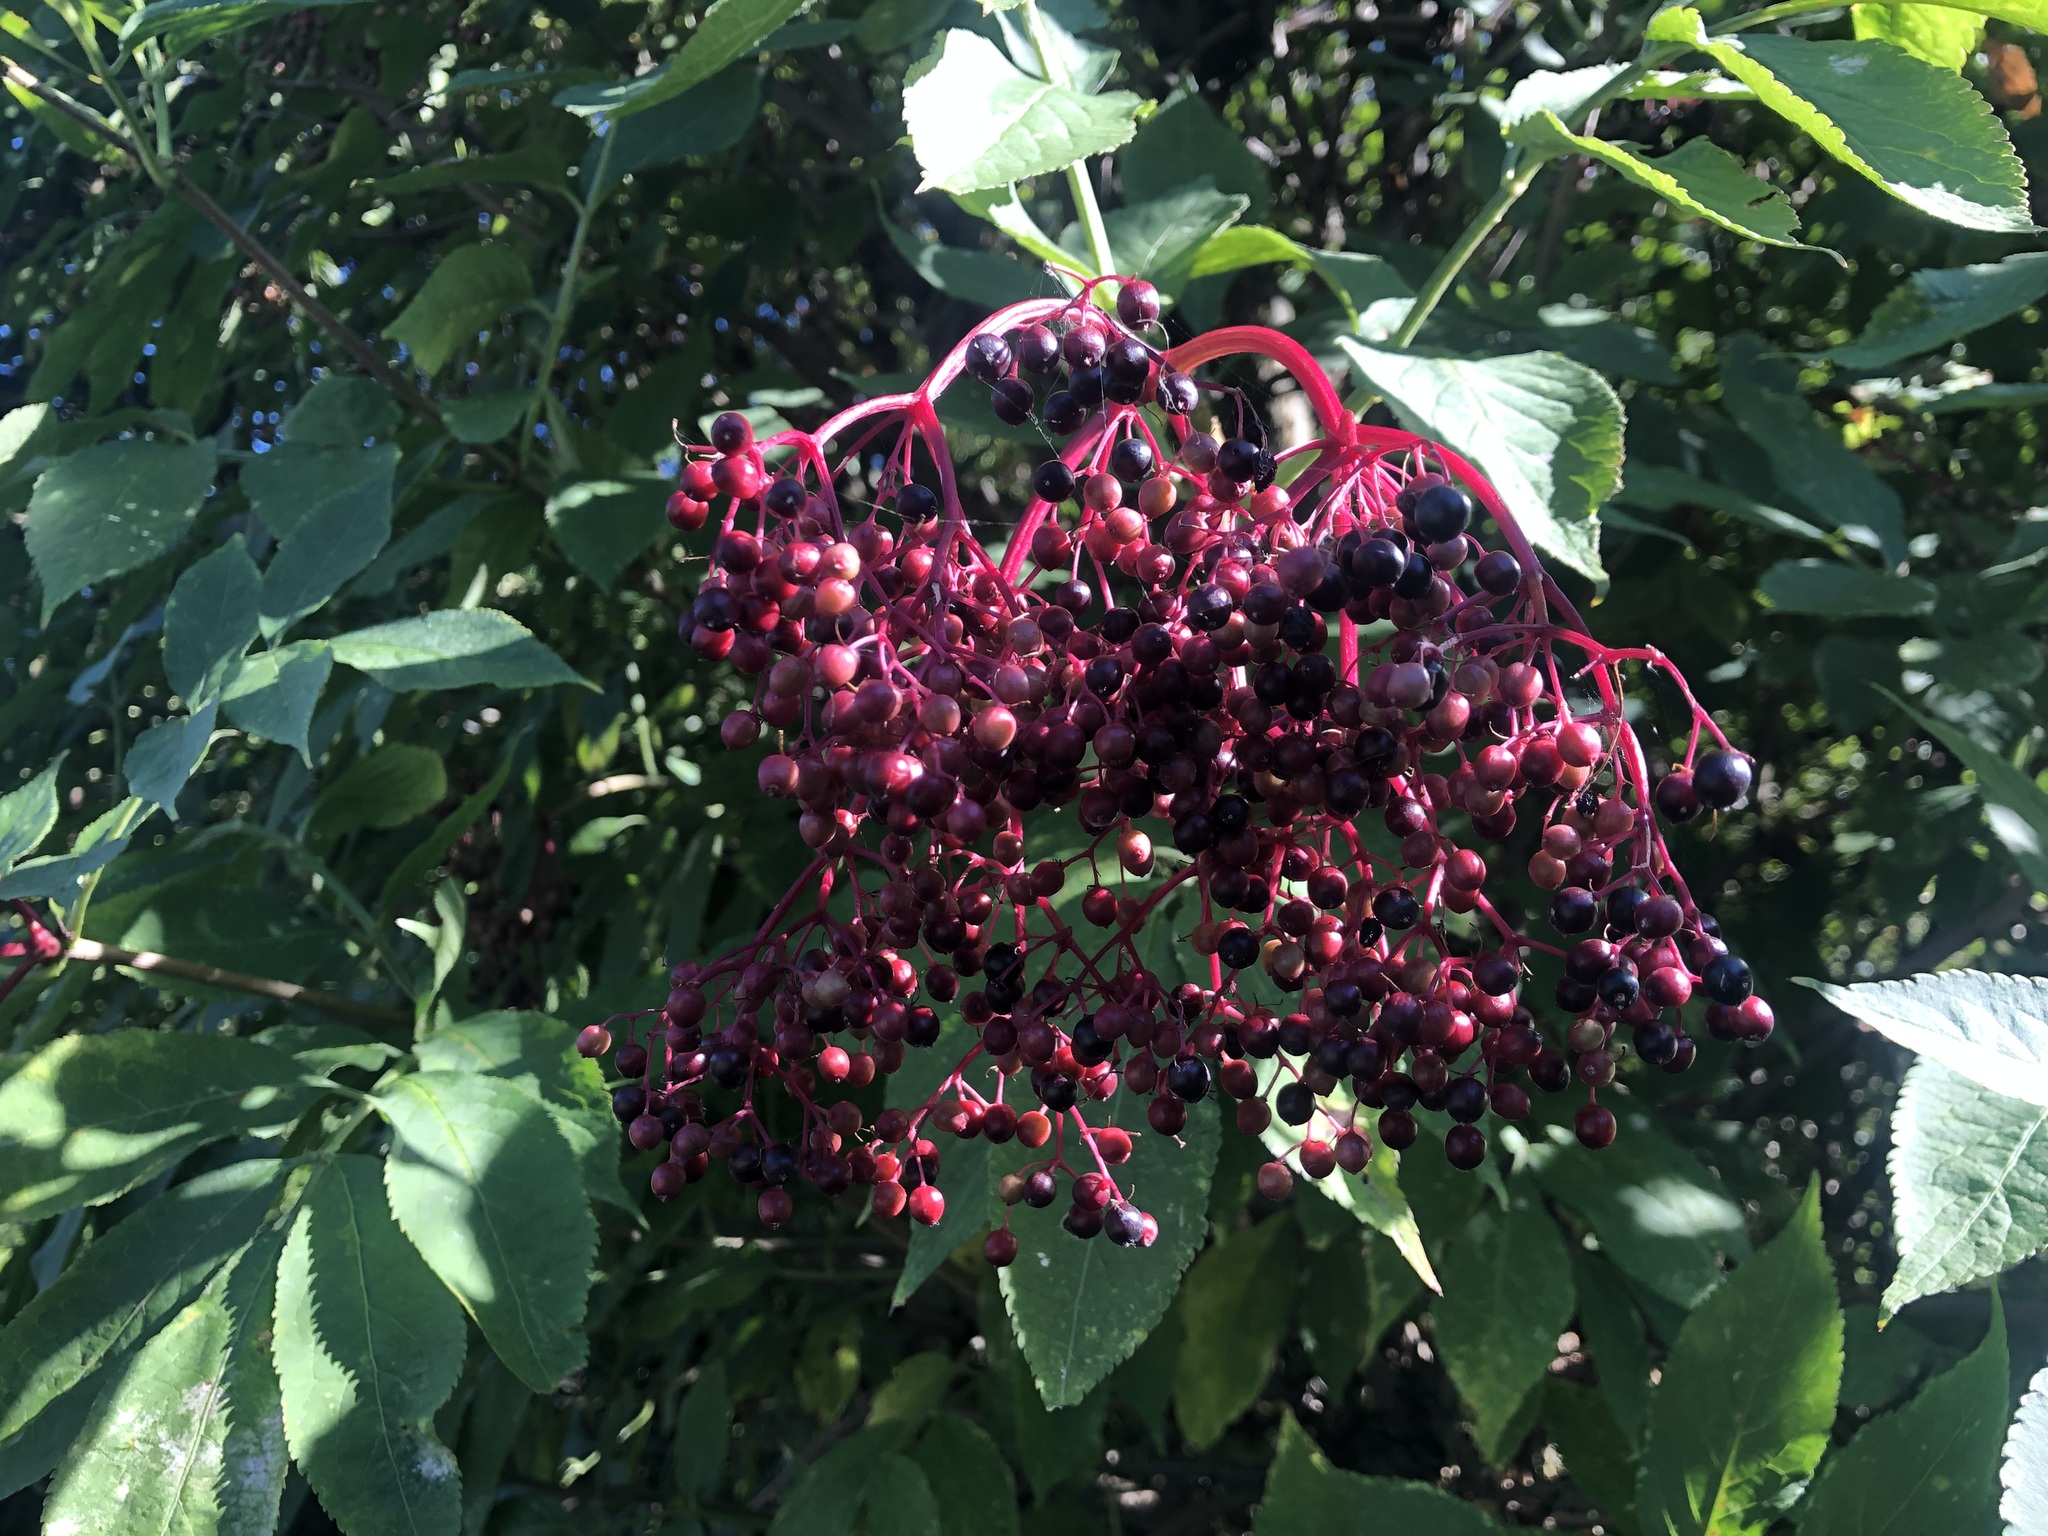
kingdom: Plantae
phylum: Tracheophyta
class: Magnoliopsida
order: Dipsacales
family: Viburnaceae
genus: Sambucus
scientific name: Sambucus nigra
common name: Elder
